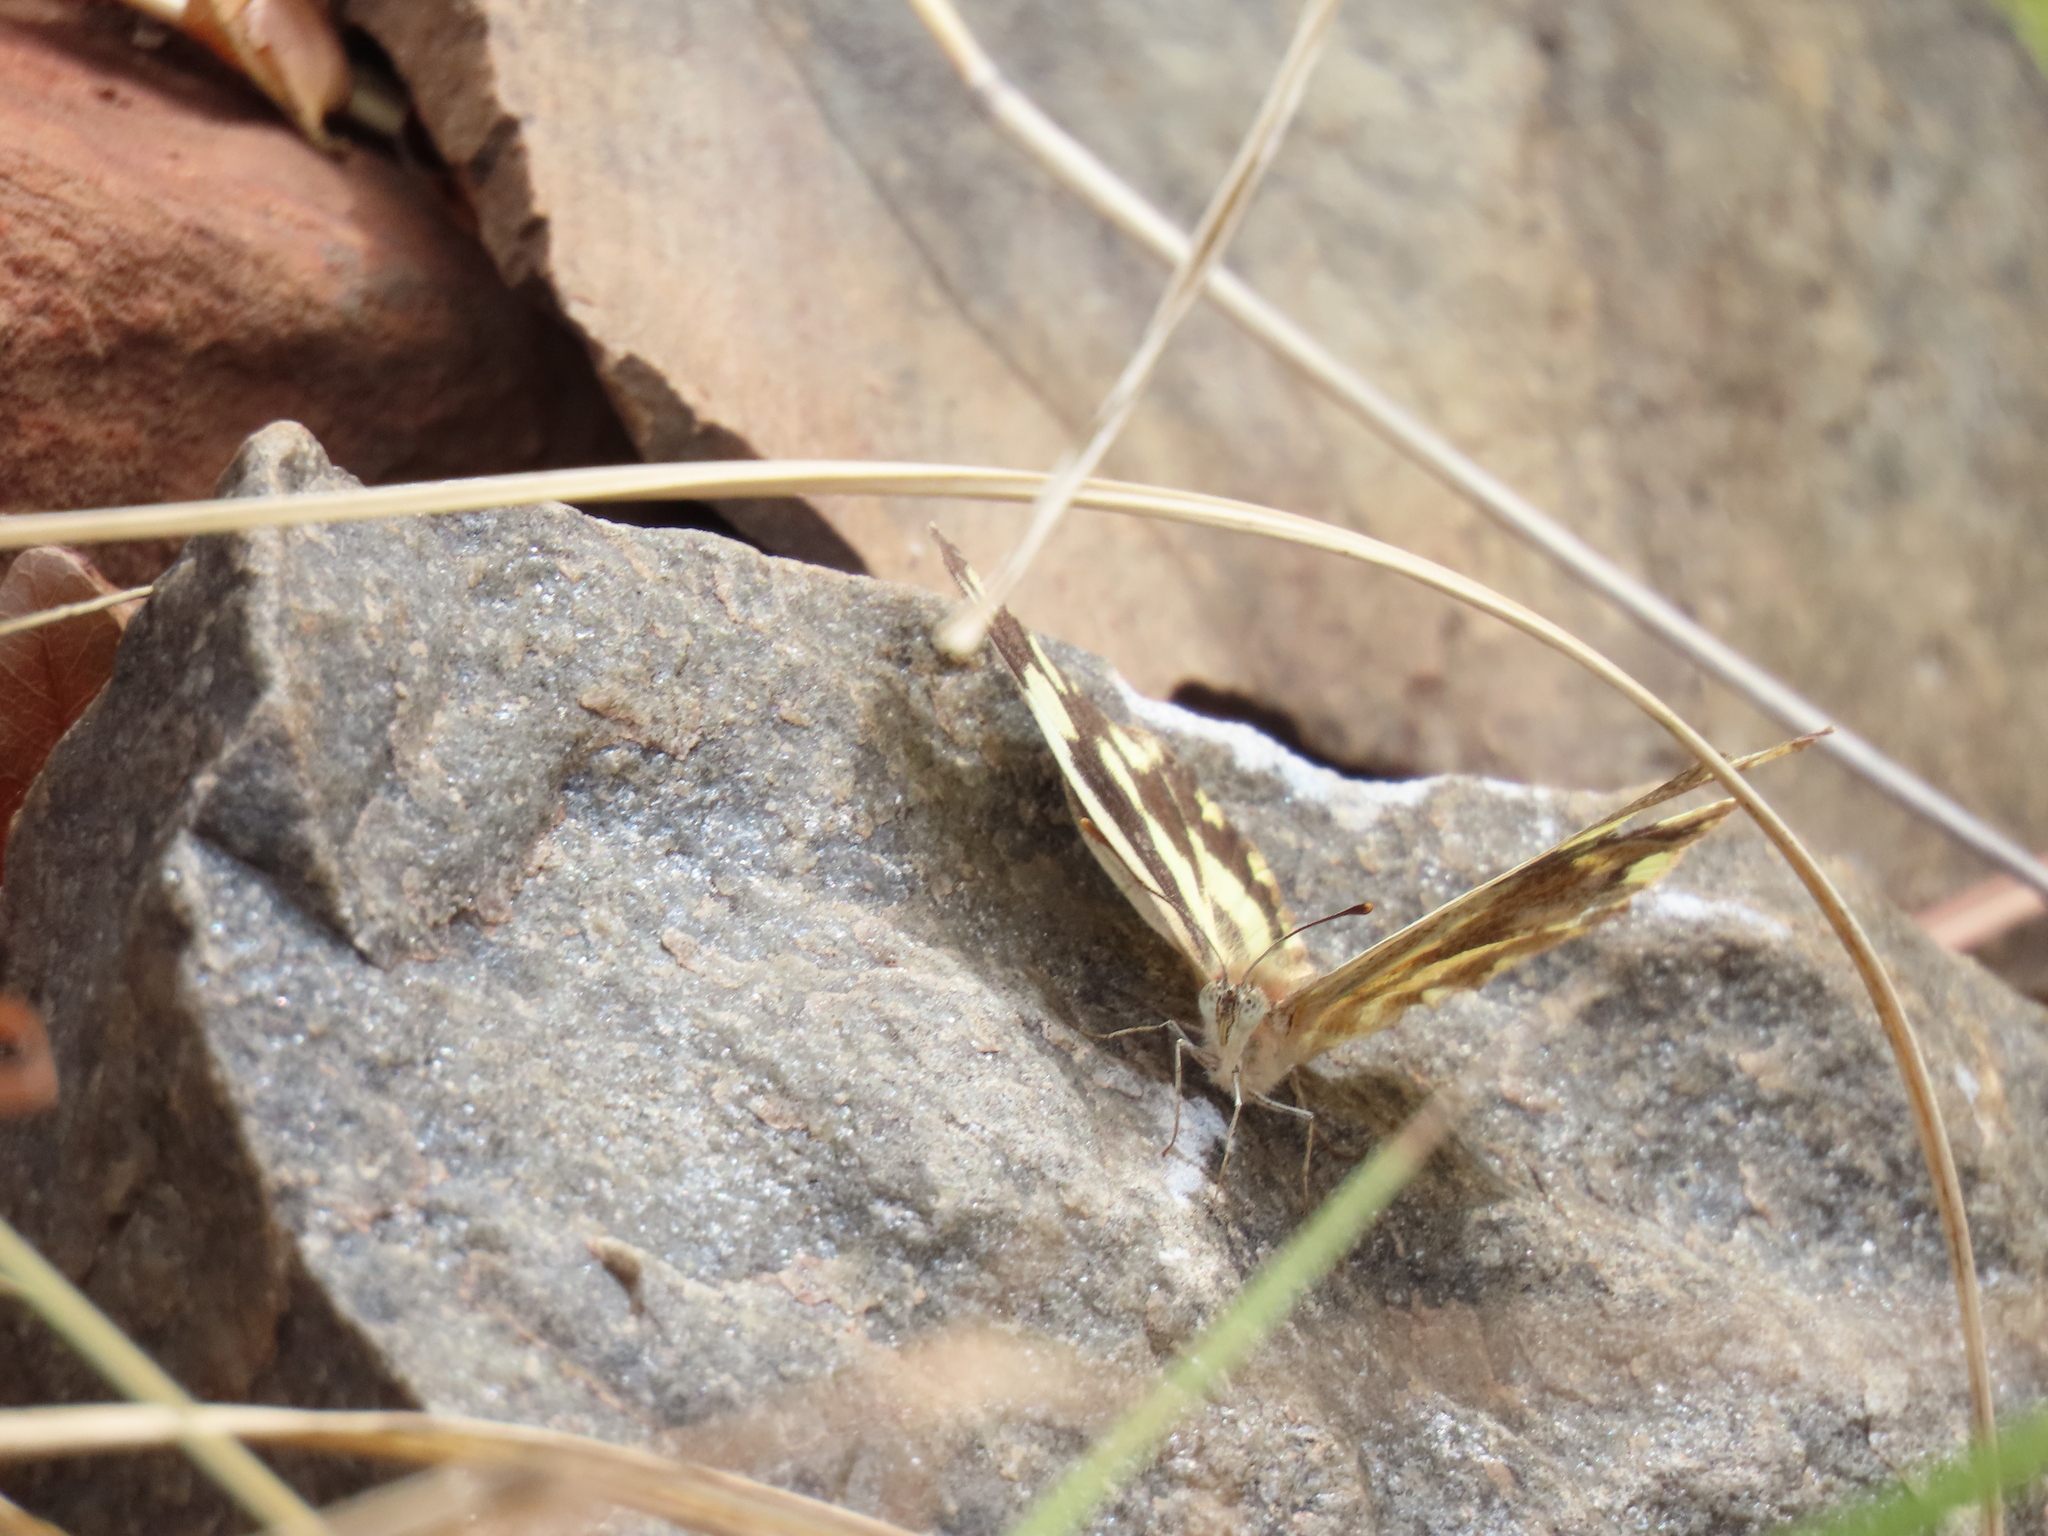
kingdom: Animalia
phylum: Arthropoda
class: Insecta
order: Lepidoptera
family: Pieridae
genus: Pinacopteryx
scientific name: Pinacopteryx eriphia
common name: Zebra white
